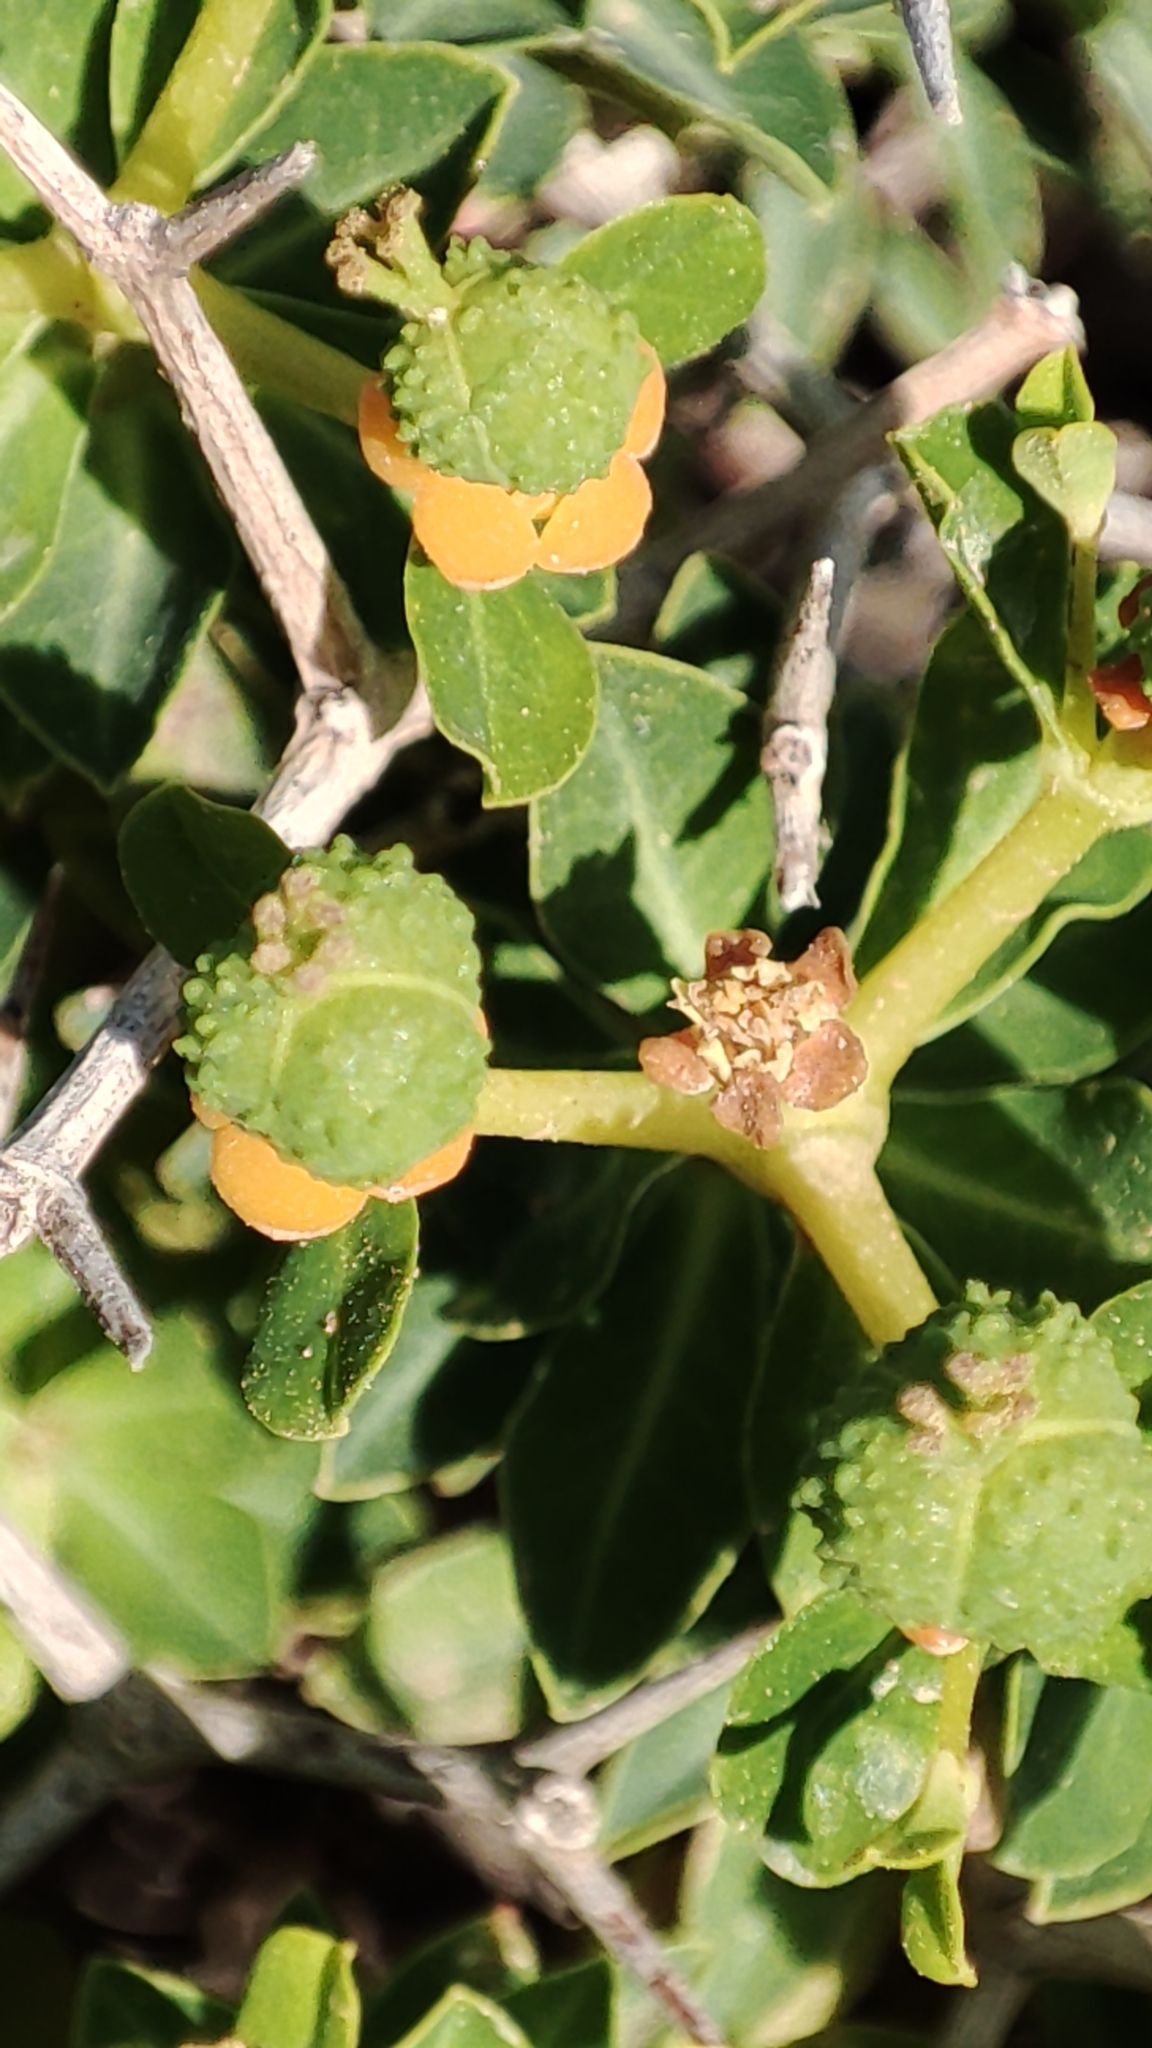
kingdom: Plantae
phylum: Tracheophyta
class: Magnoliopsida
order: Malpighiales
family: Euphorbiaceae
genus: Euphorbia
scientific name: Euphorbia acanthothamnos
